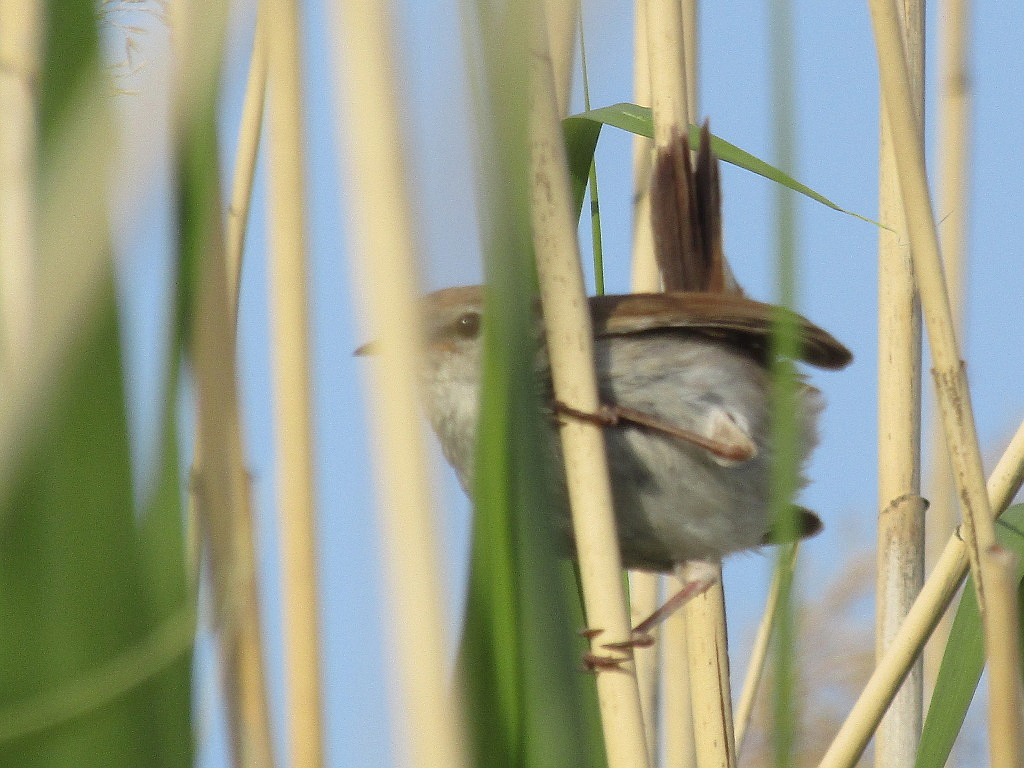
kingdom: Animalia
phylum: Chordata
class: Aves
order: Passeriformes
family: Cettiidae
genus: Cettia
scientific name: Cettia cetti
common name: Cetti's warbler
